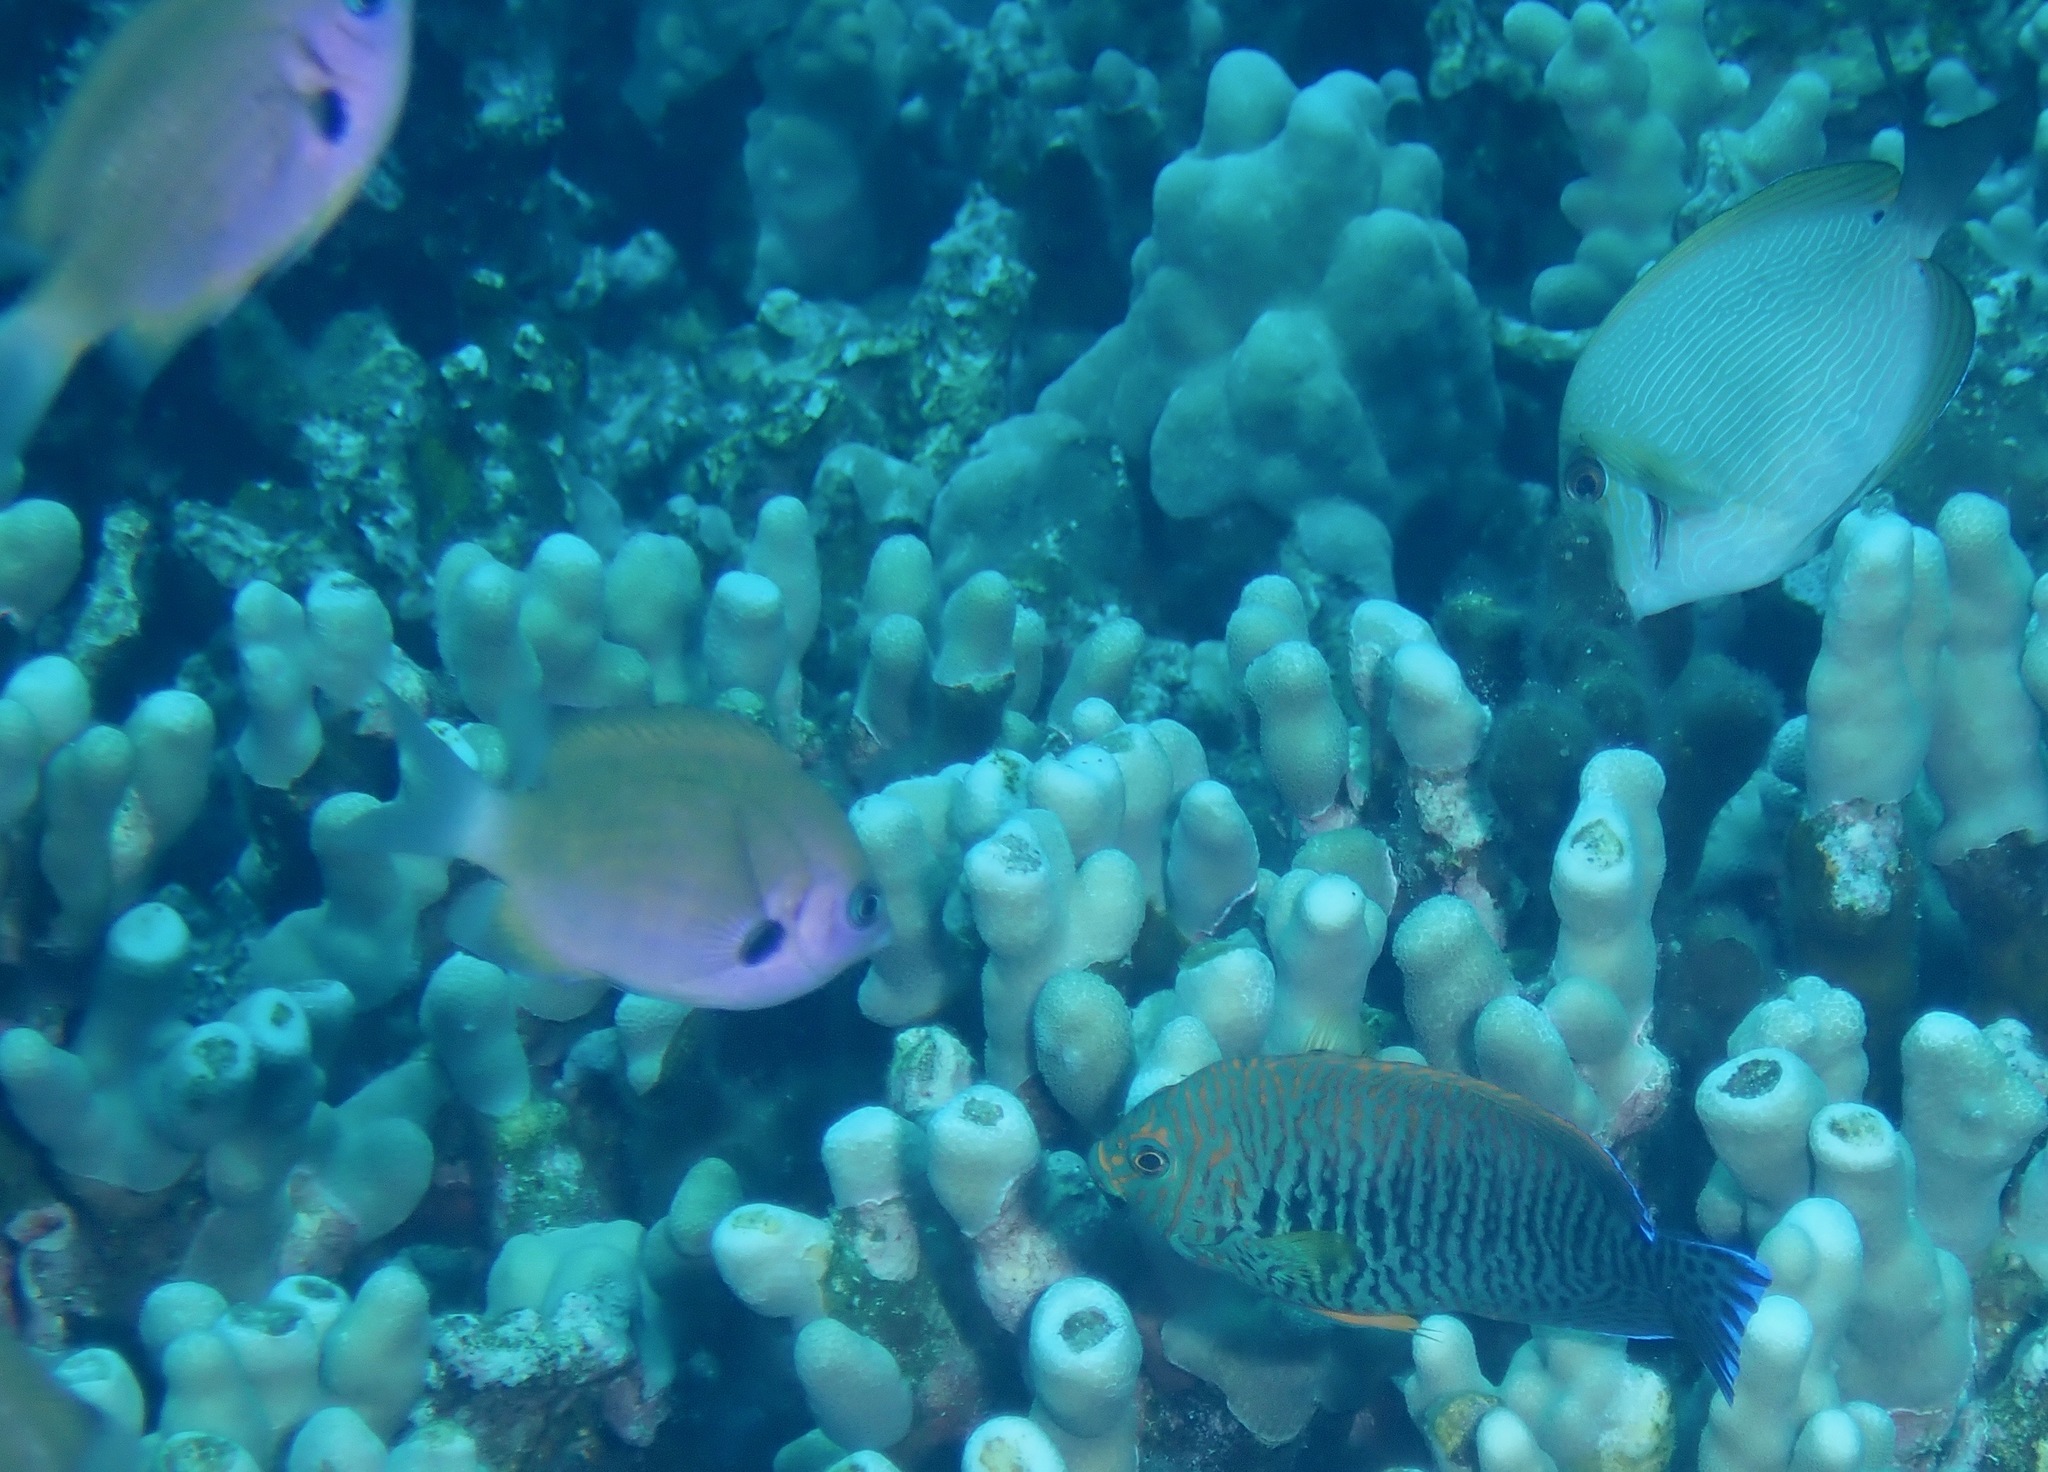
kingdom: Animalia
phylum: Chordata
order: Perciformes
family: Pomacentridae
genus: Pycnochromis
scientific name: Pycnochromis pacifica
